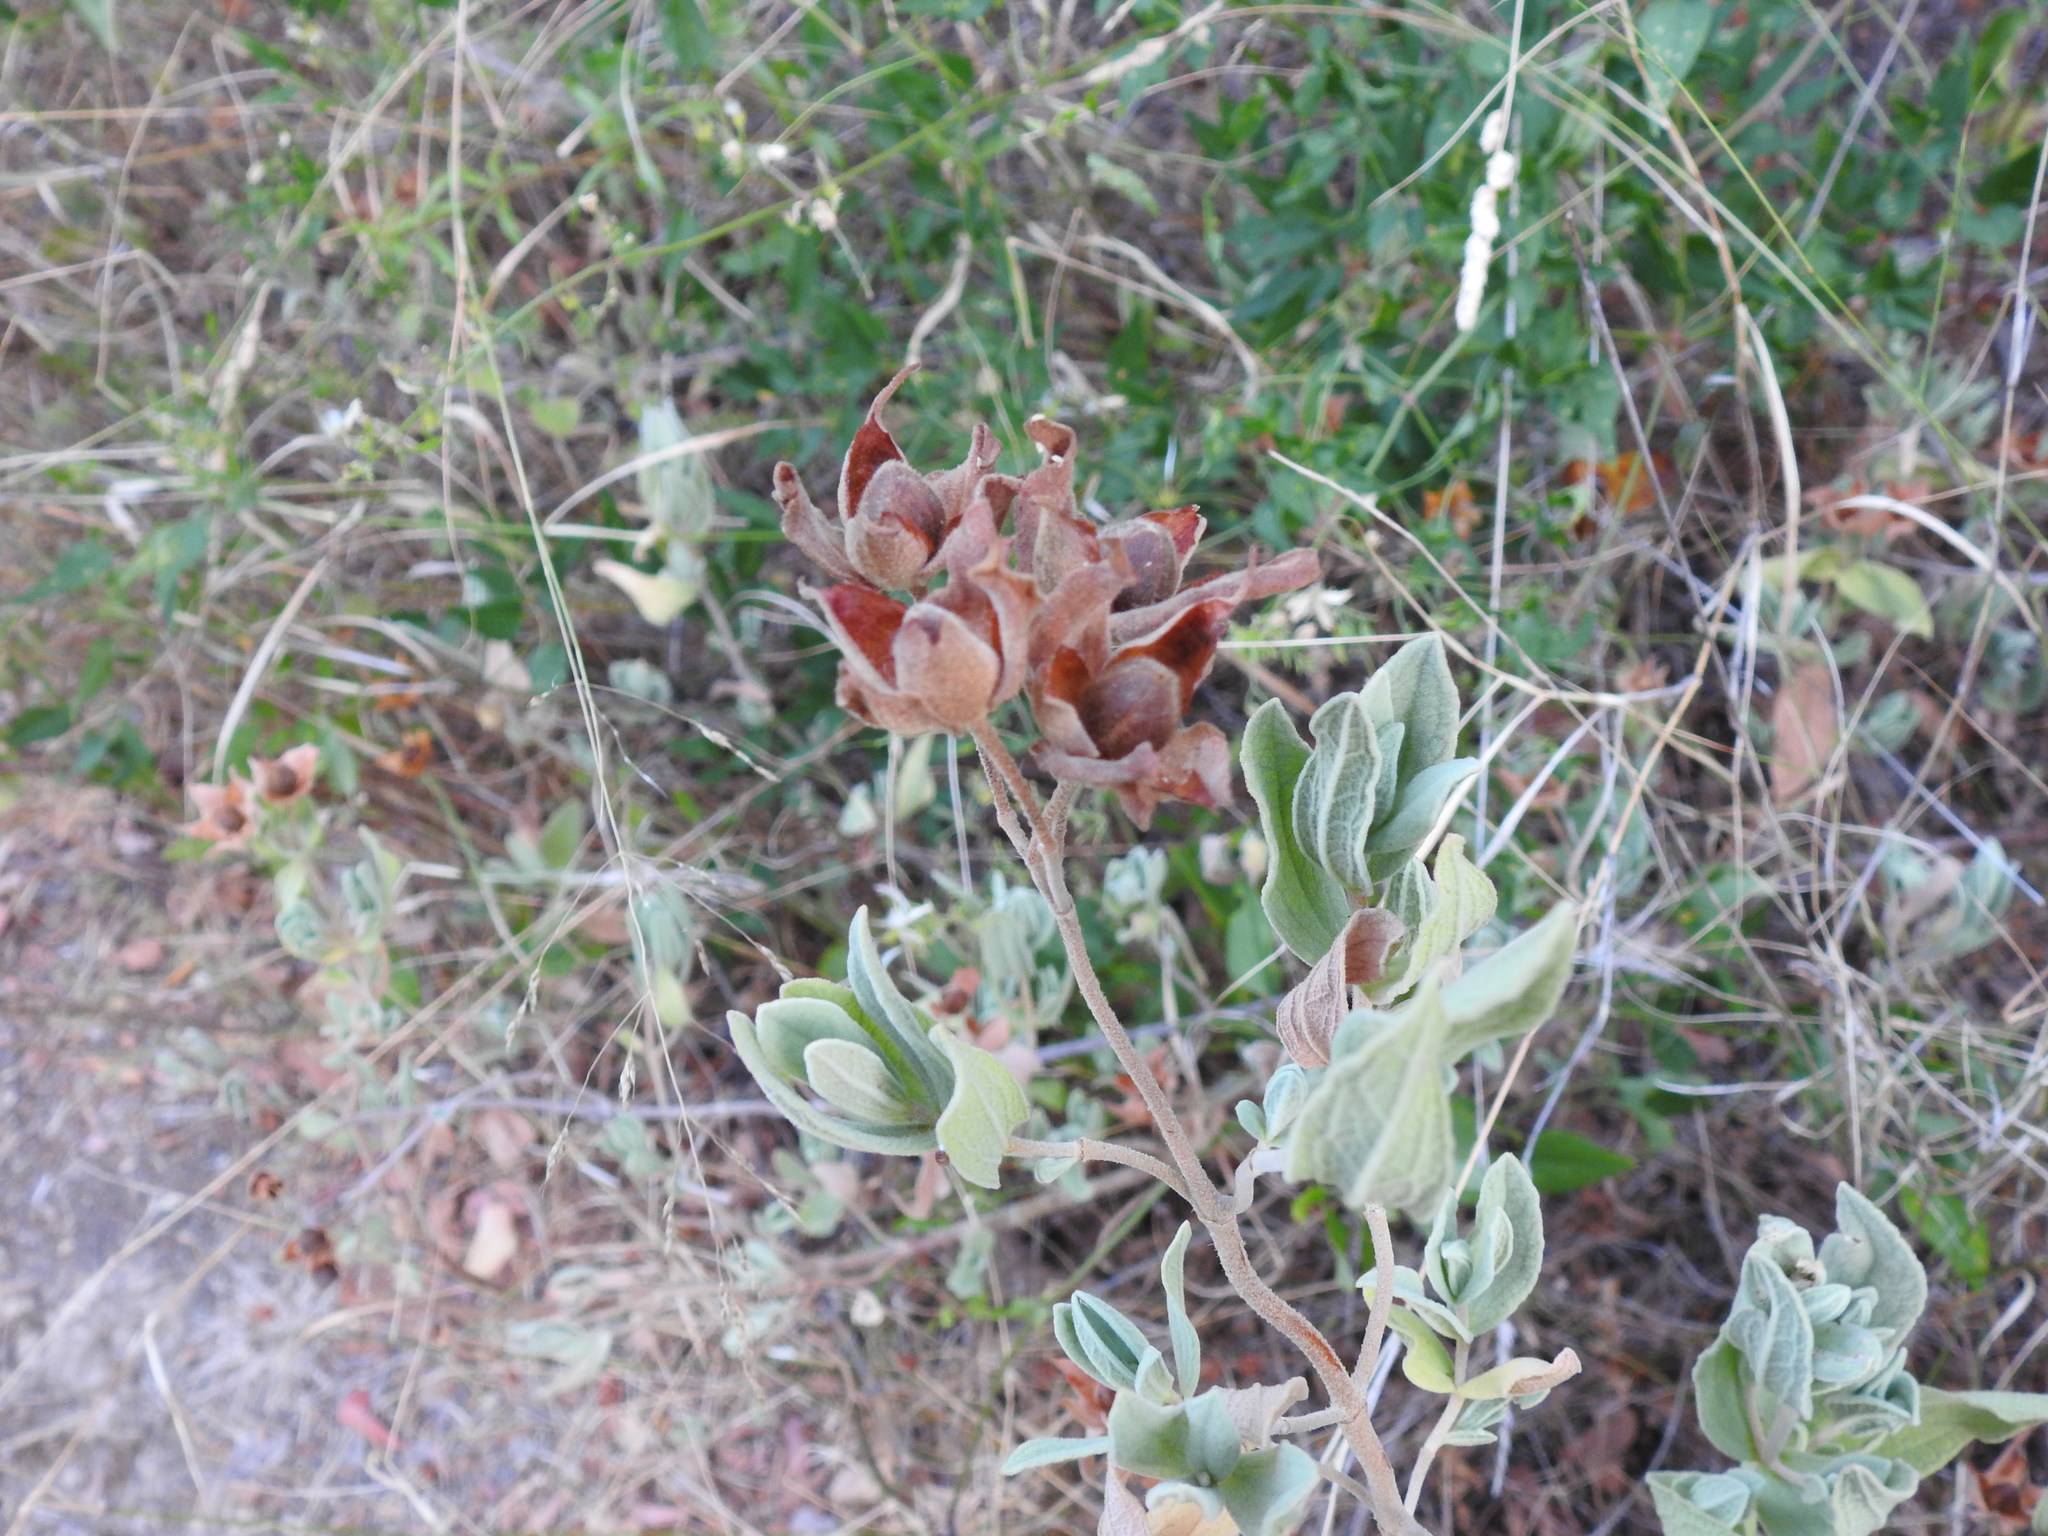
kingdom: Plantae
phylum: Tracheophyta
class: Magnoliopsida
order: Malvales
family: Cistaceae
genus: Cistus
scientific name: Cistus albidus
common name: White-leaf rock-rose
